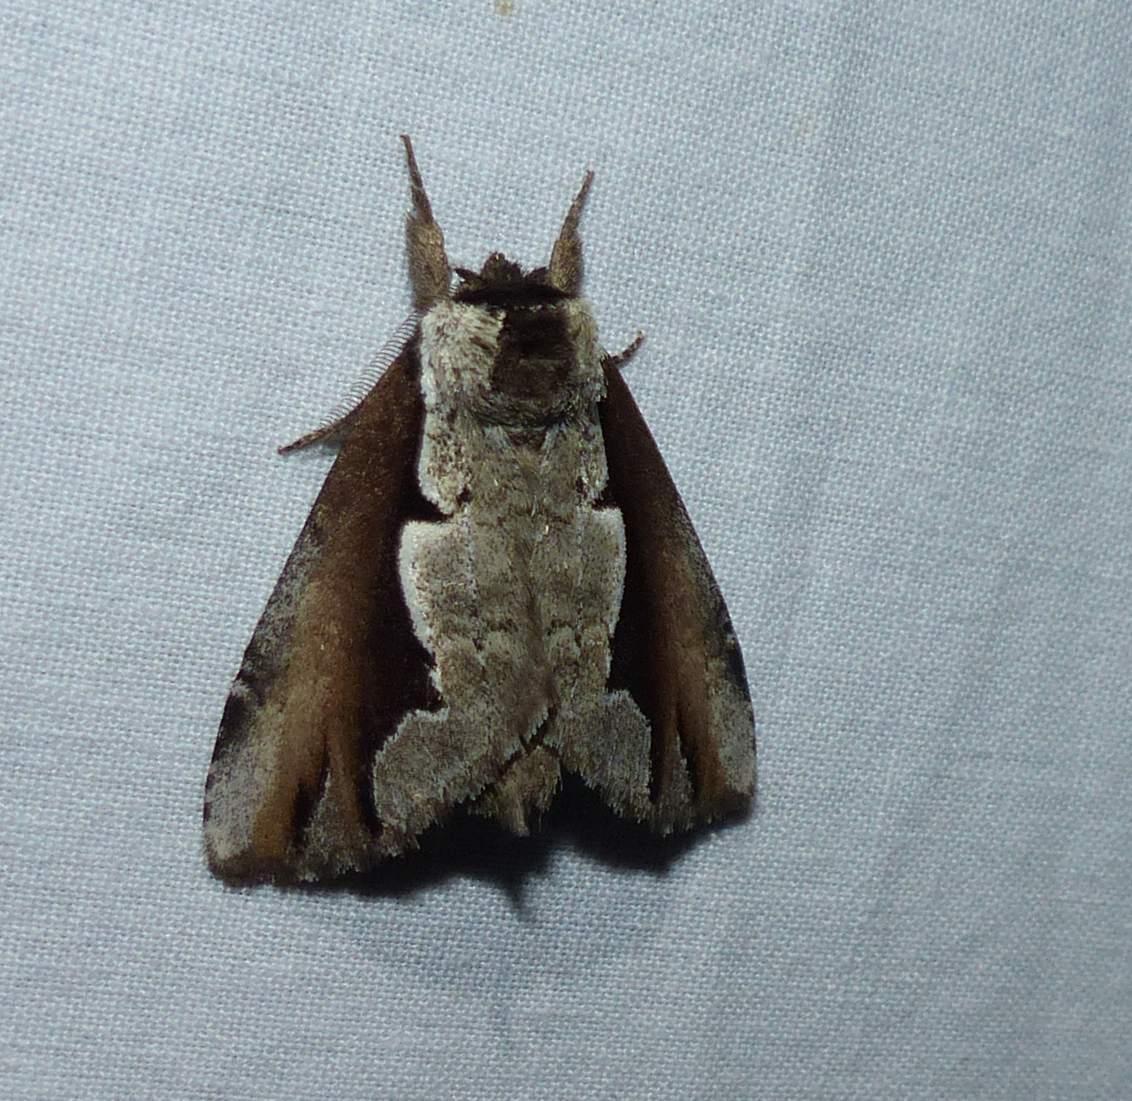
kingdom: Animalia
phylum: Arthropoda
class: Insecta
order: Lepidoptera
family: Notodontidae
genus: Nerice
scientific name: Nerice bidentata
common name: Double-toothed prominent
